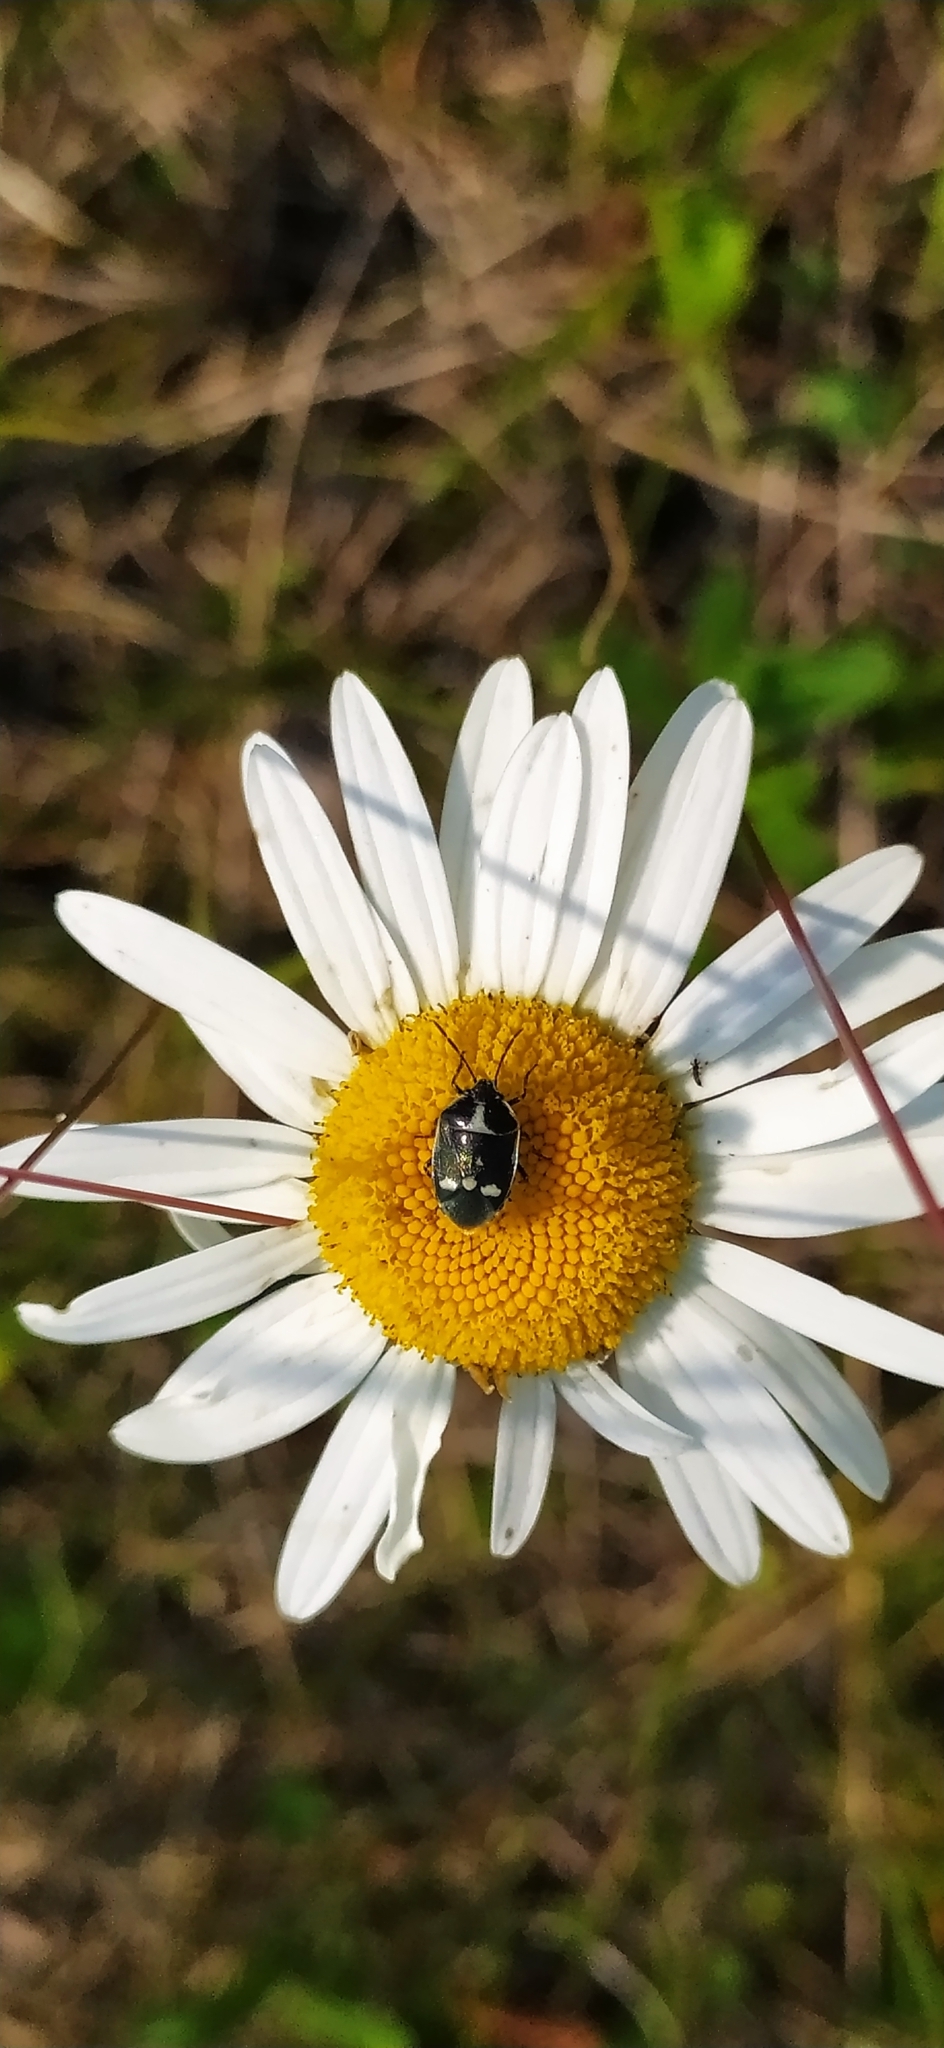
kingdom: Animalia
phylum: Arthropoda
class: Insecta
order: Hemiptera
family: Pentatomidae
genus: Eurydema
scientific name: Eurydema oleracea
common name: Cabbage bug
